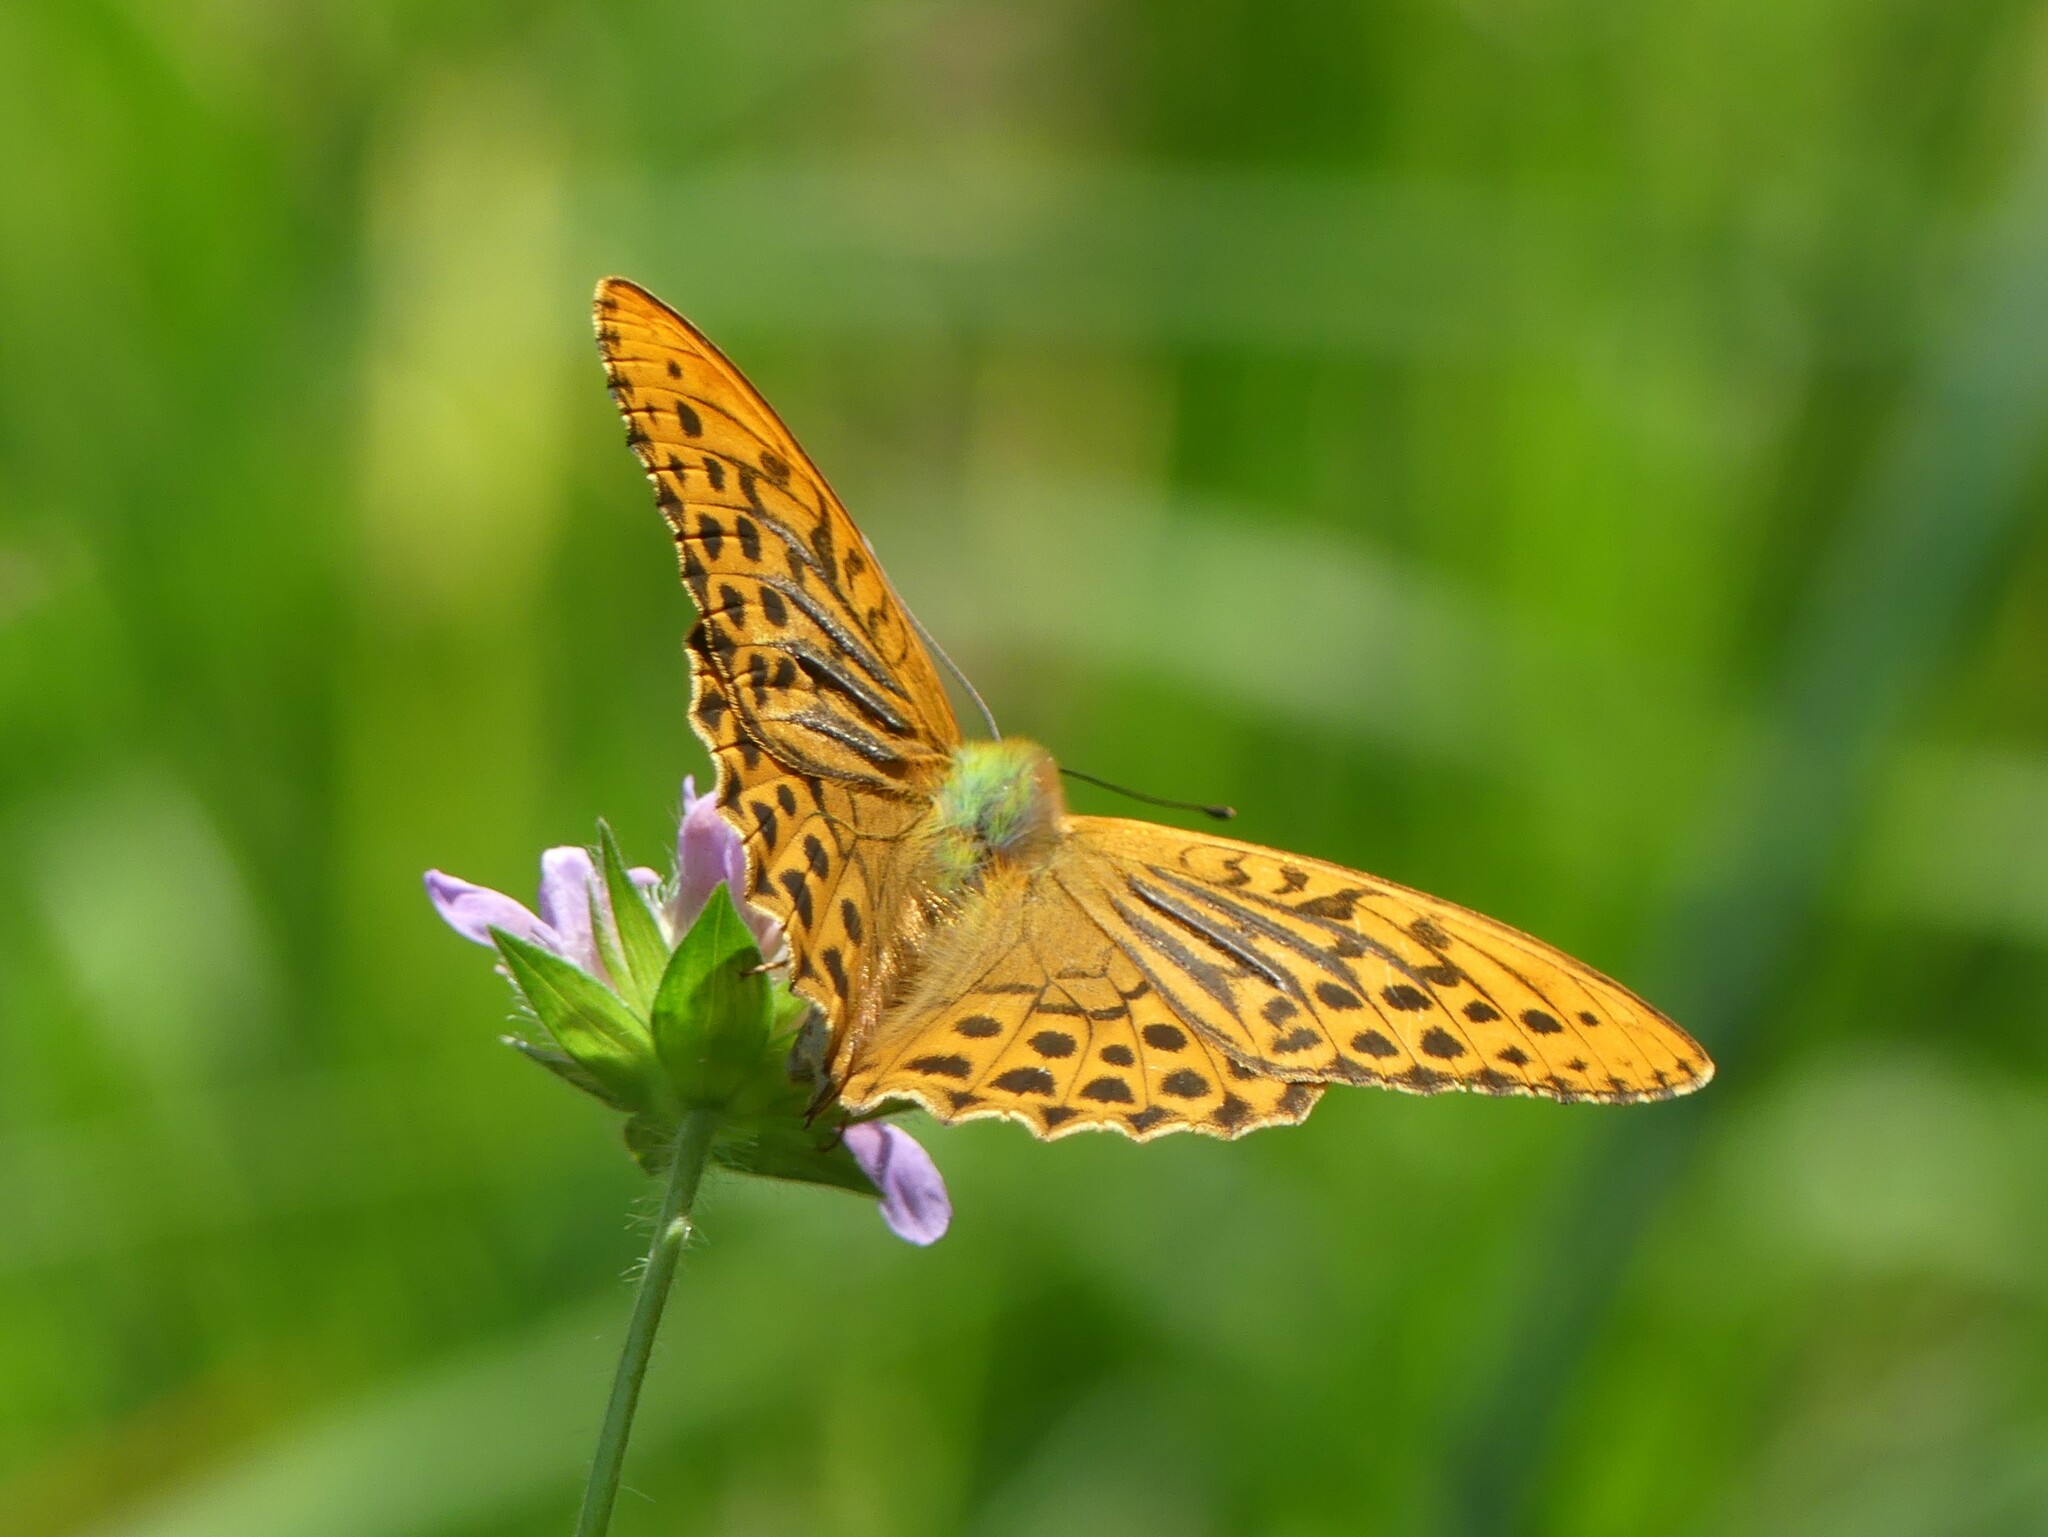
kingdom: Animalia
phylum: Arthropoda
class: Insecta
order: Lepidoptera
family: Nymphalidae
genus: Argynnis
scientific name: Argynnis paphia
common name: Silver-washed fritillary
